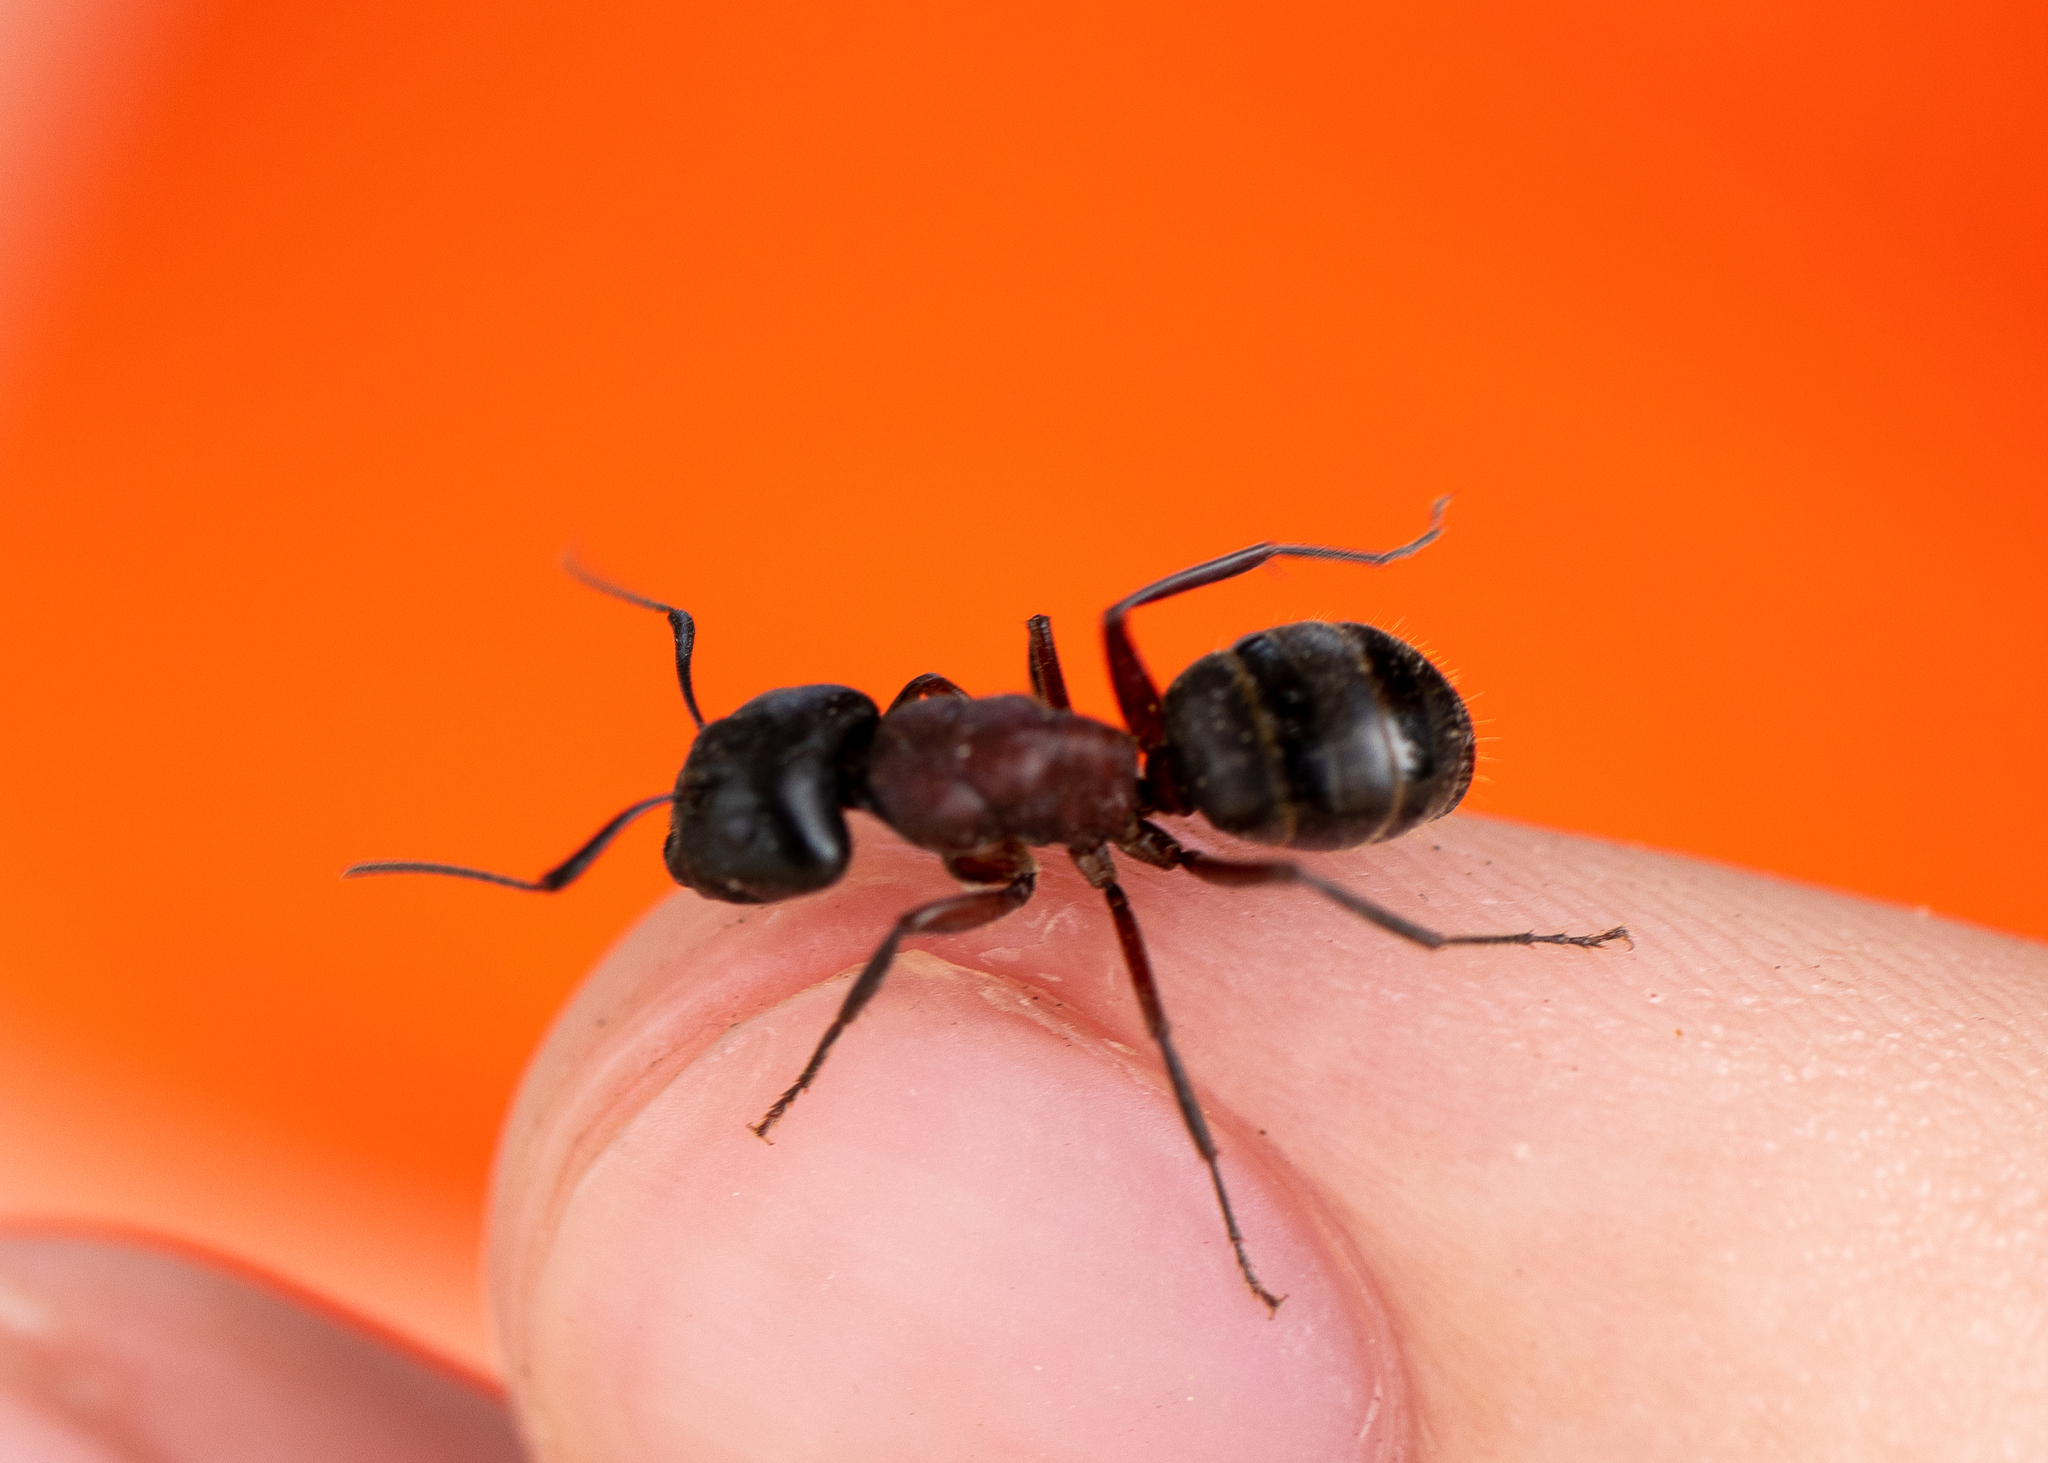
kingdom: Animalia
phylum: Arthropoda
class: Insecta
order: Hymenoptera
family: Formicidae
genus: Camponotus
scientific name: Camponotus novaeboracensis
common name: New york carpenter ant
